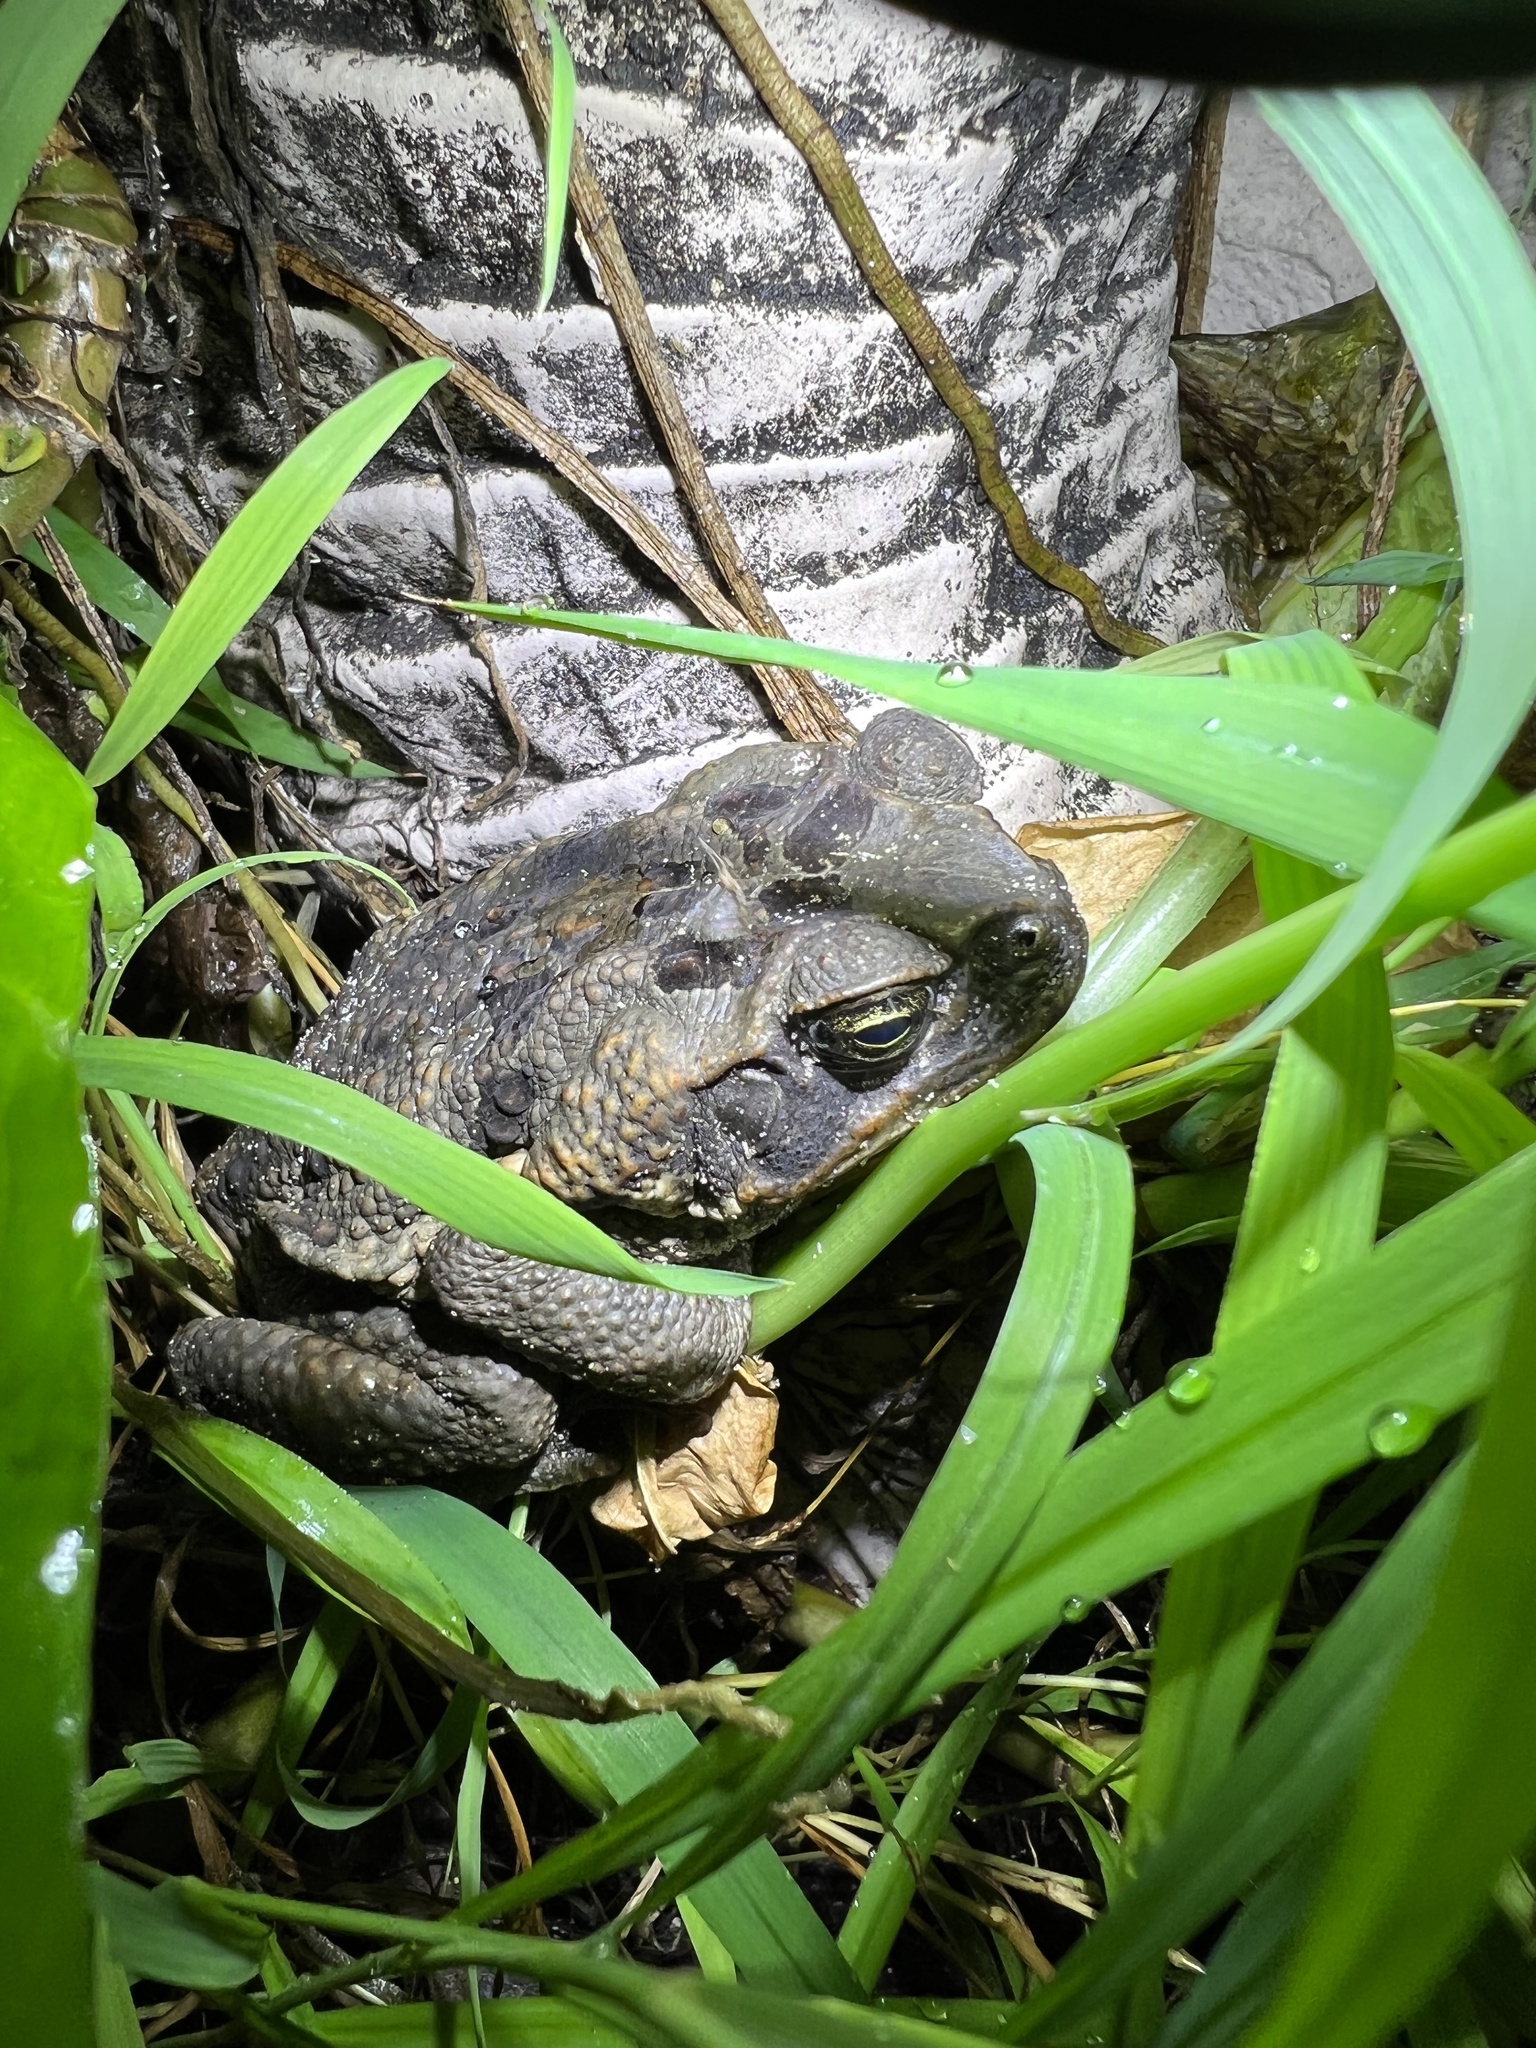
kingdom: Animalia
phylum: Chordata
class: Amphibia
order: Anura
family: Bufonidae
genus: Rhinella
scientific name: Rhinella marina
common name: Cane toad
